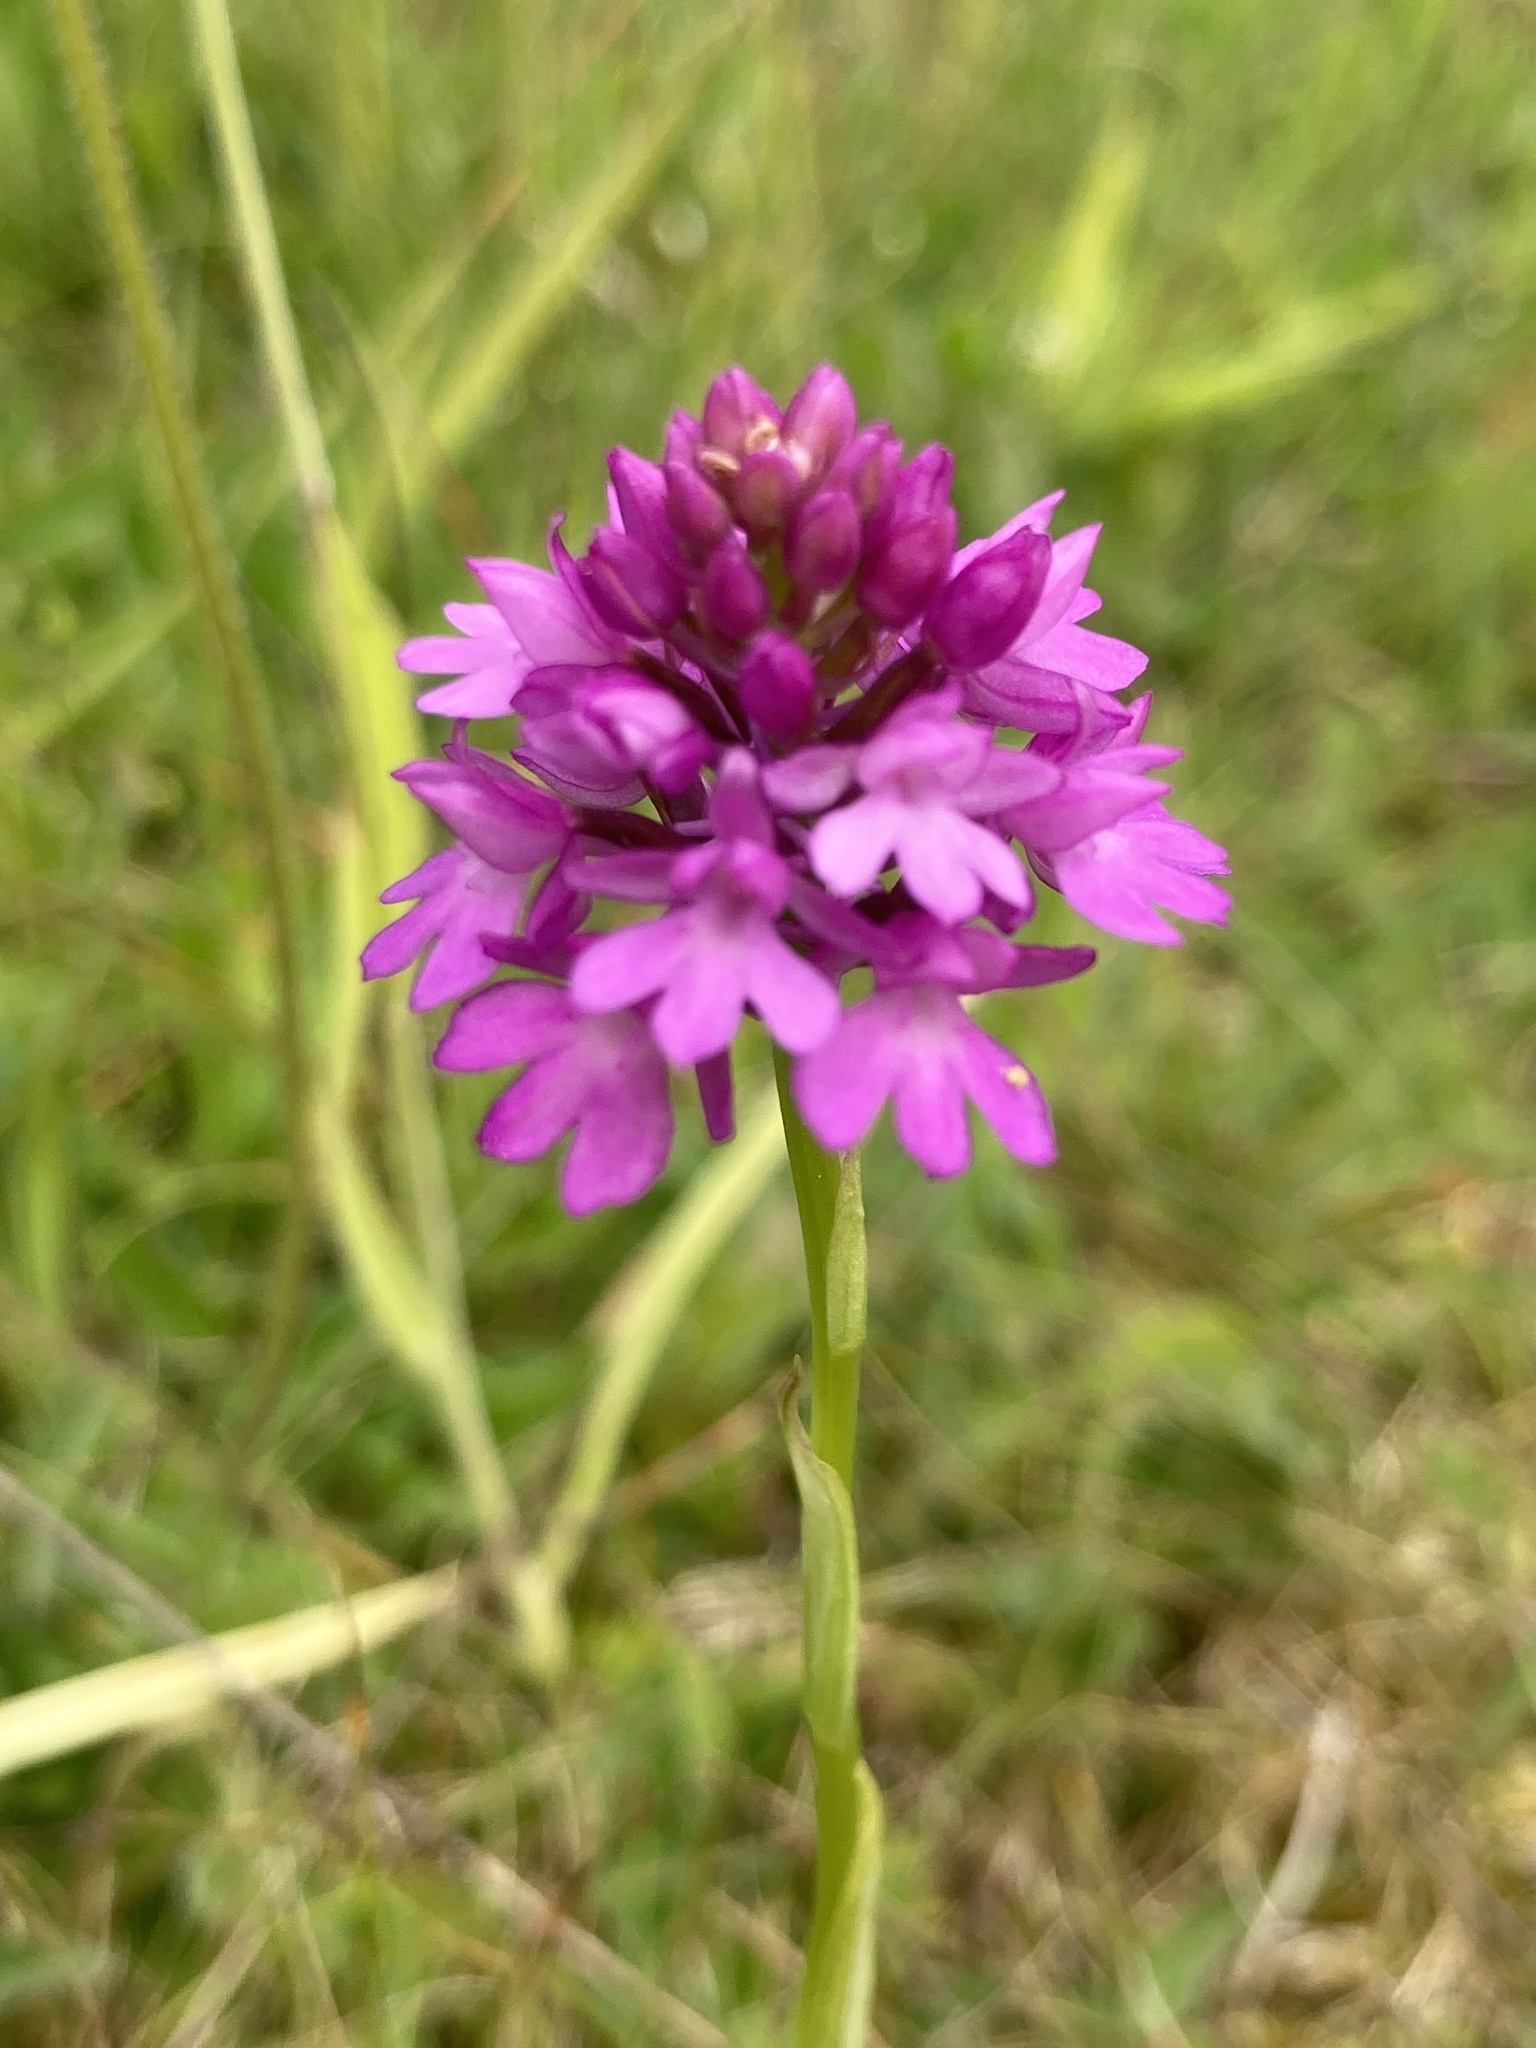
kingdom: Plantae
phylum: Tracheophyta
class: Liliopsida
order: Asparagales
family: Orchidaceae
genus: Anacamptis
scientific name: Anacamptis pyramidalis
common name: Pyramidal orchid
